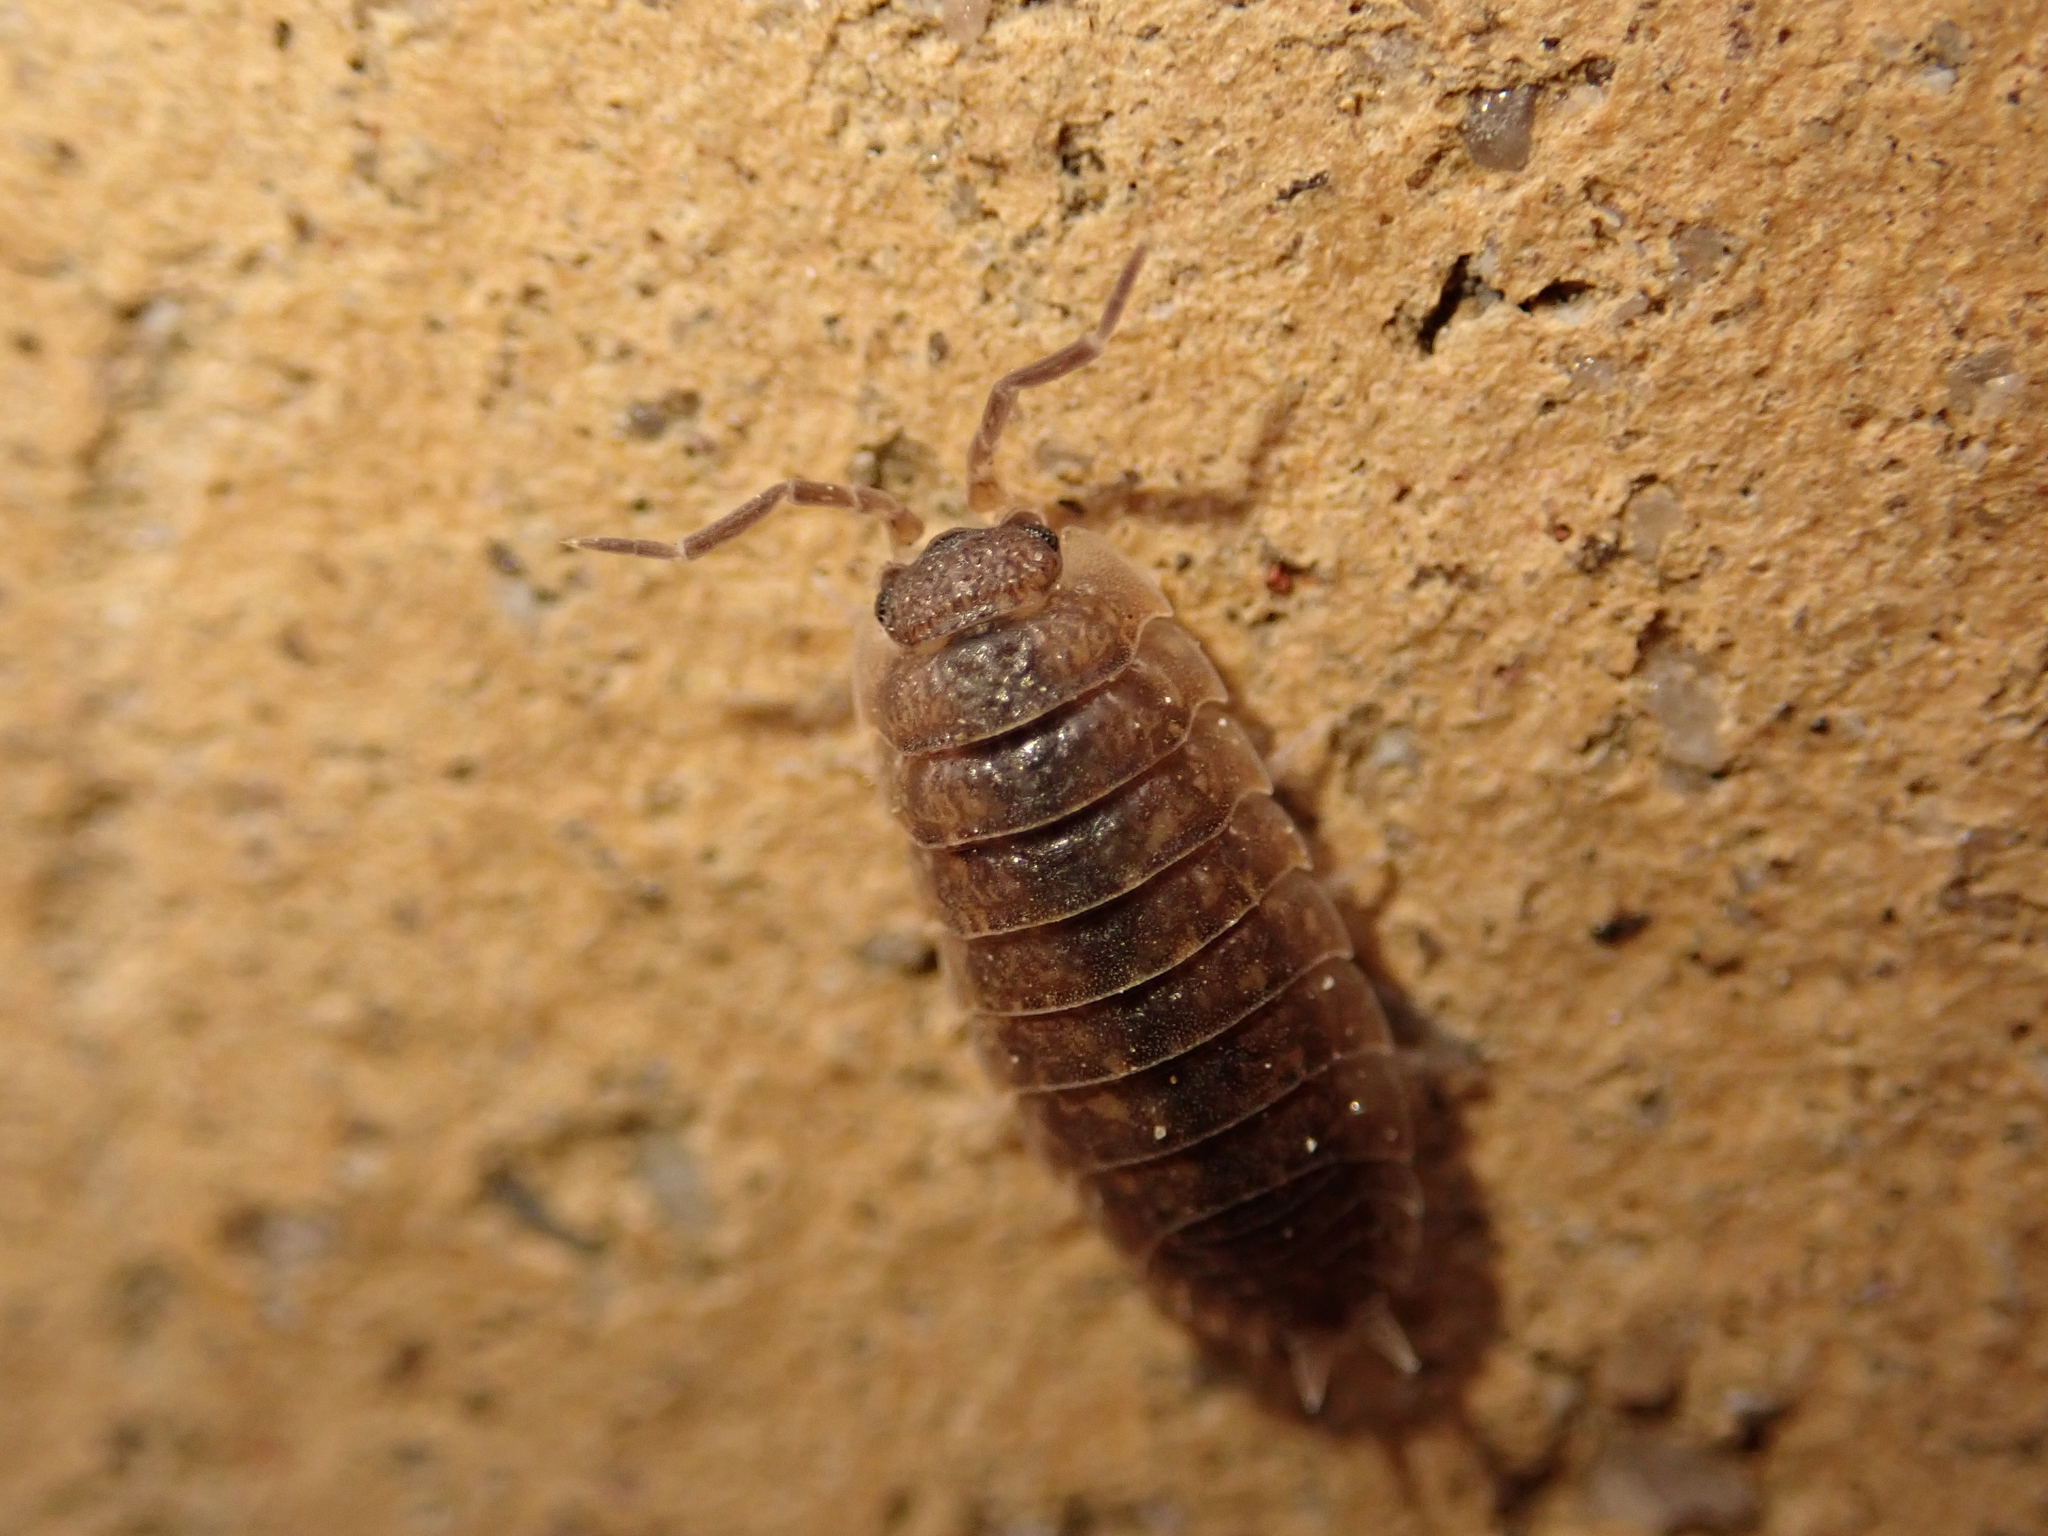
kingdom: Animalia
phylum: Arthropoda
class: Malacostraca
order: Isopoda
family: Porcellionidae
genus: Porcellio
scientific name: Porcellio scaber
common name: Common rough woodlouse
